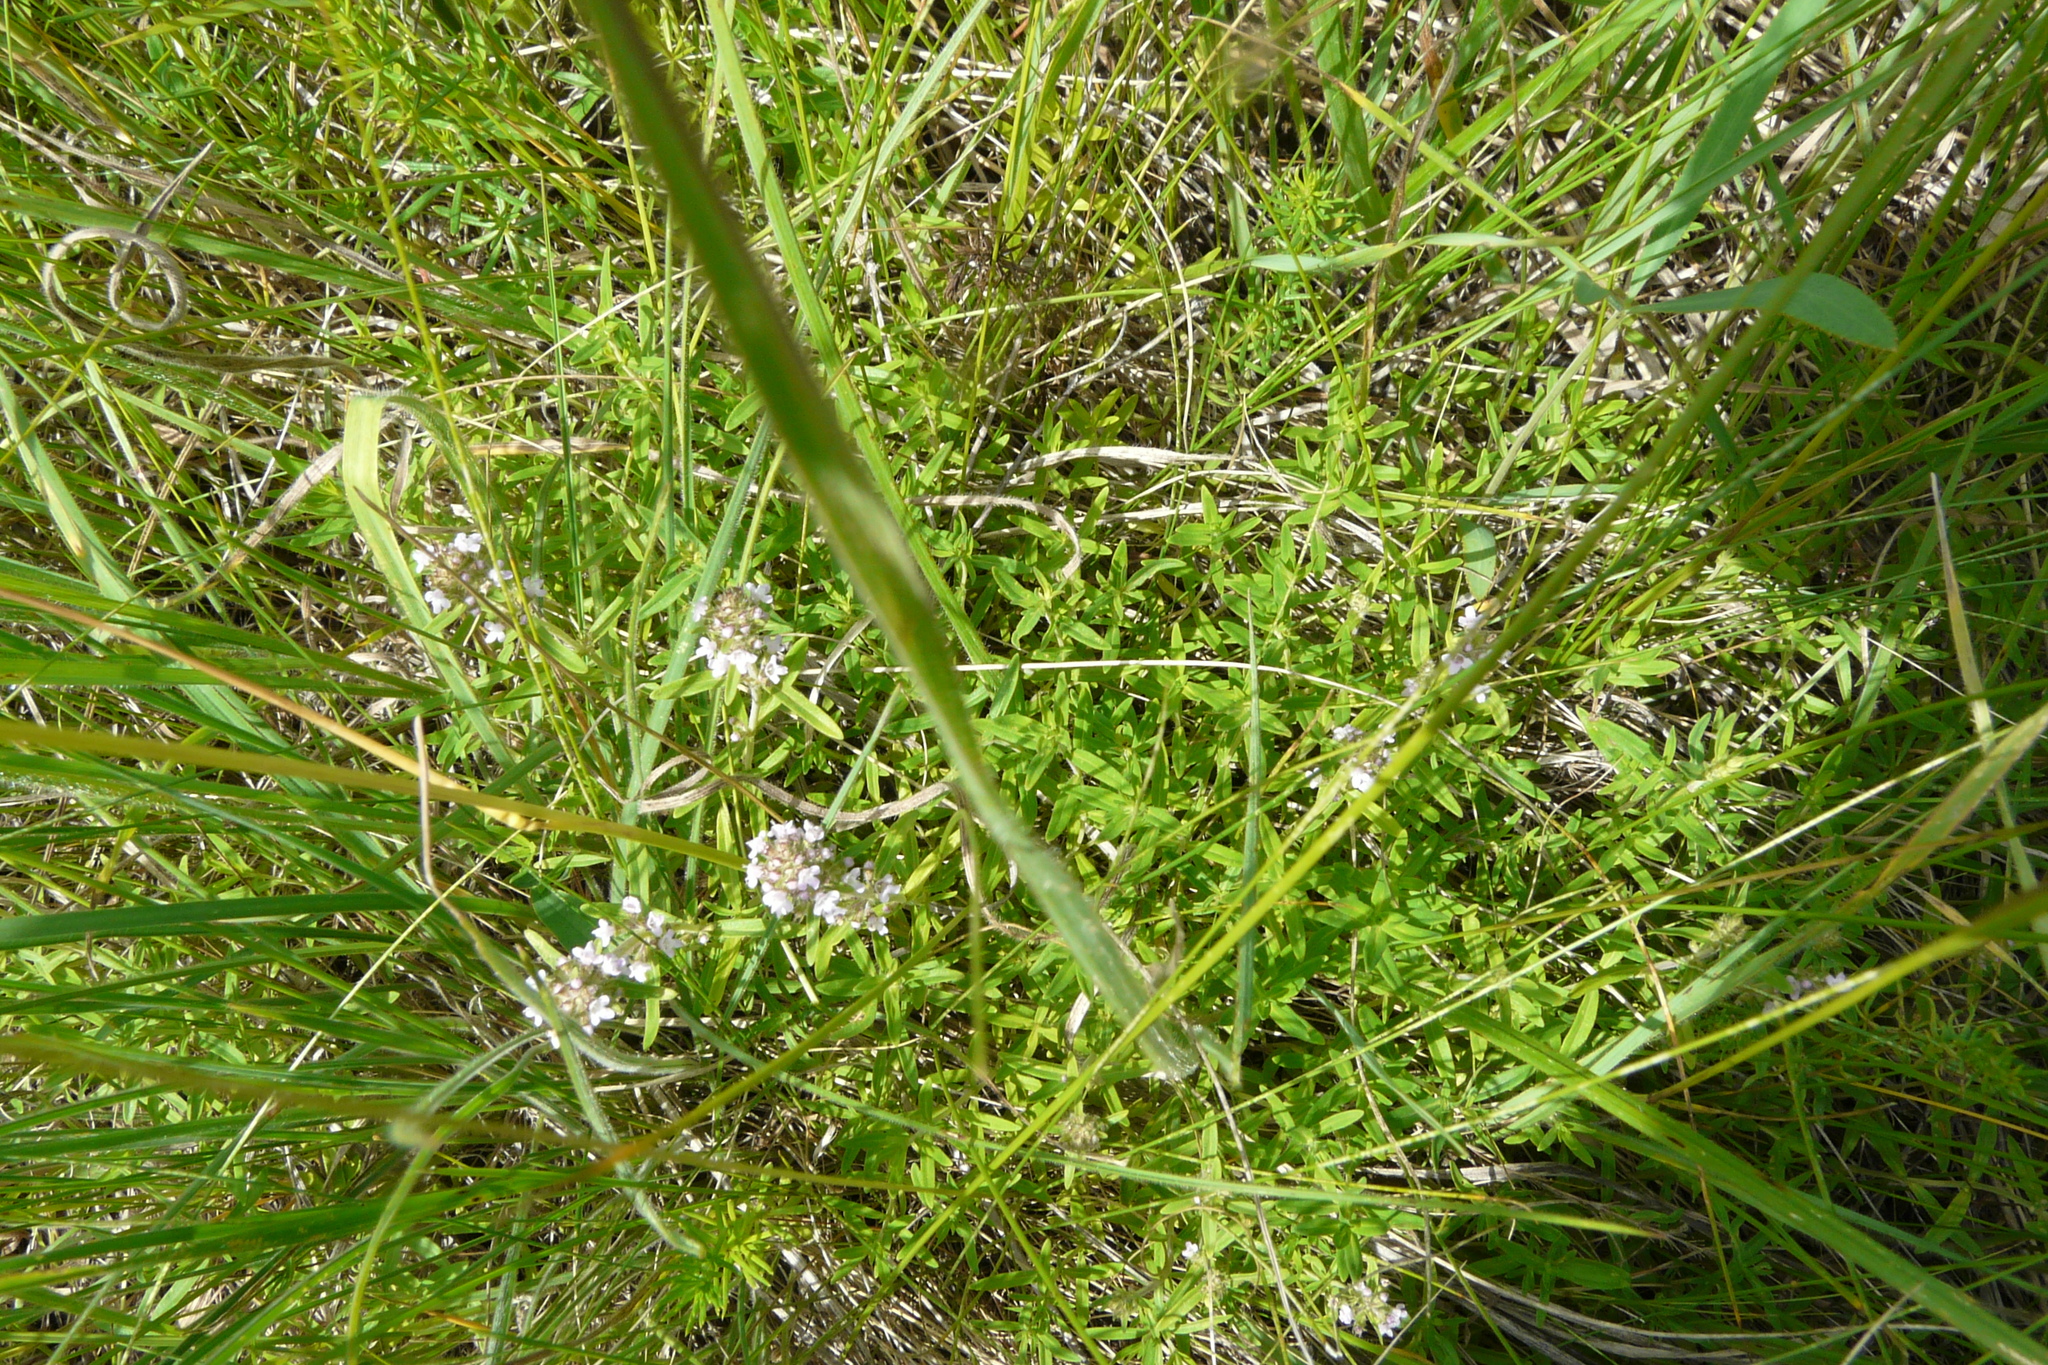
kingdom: Plantae
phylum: Tracheophyta
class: Magnoliopsida
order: Lamiales
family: Lamiaceae
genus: Thymus
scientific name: Thymus pannonicus
